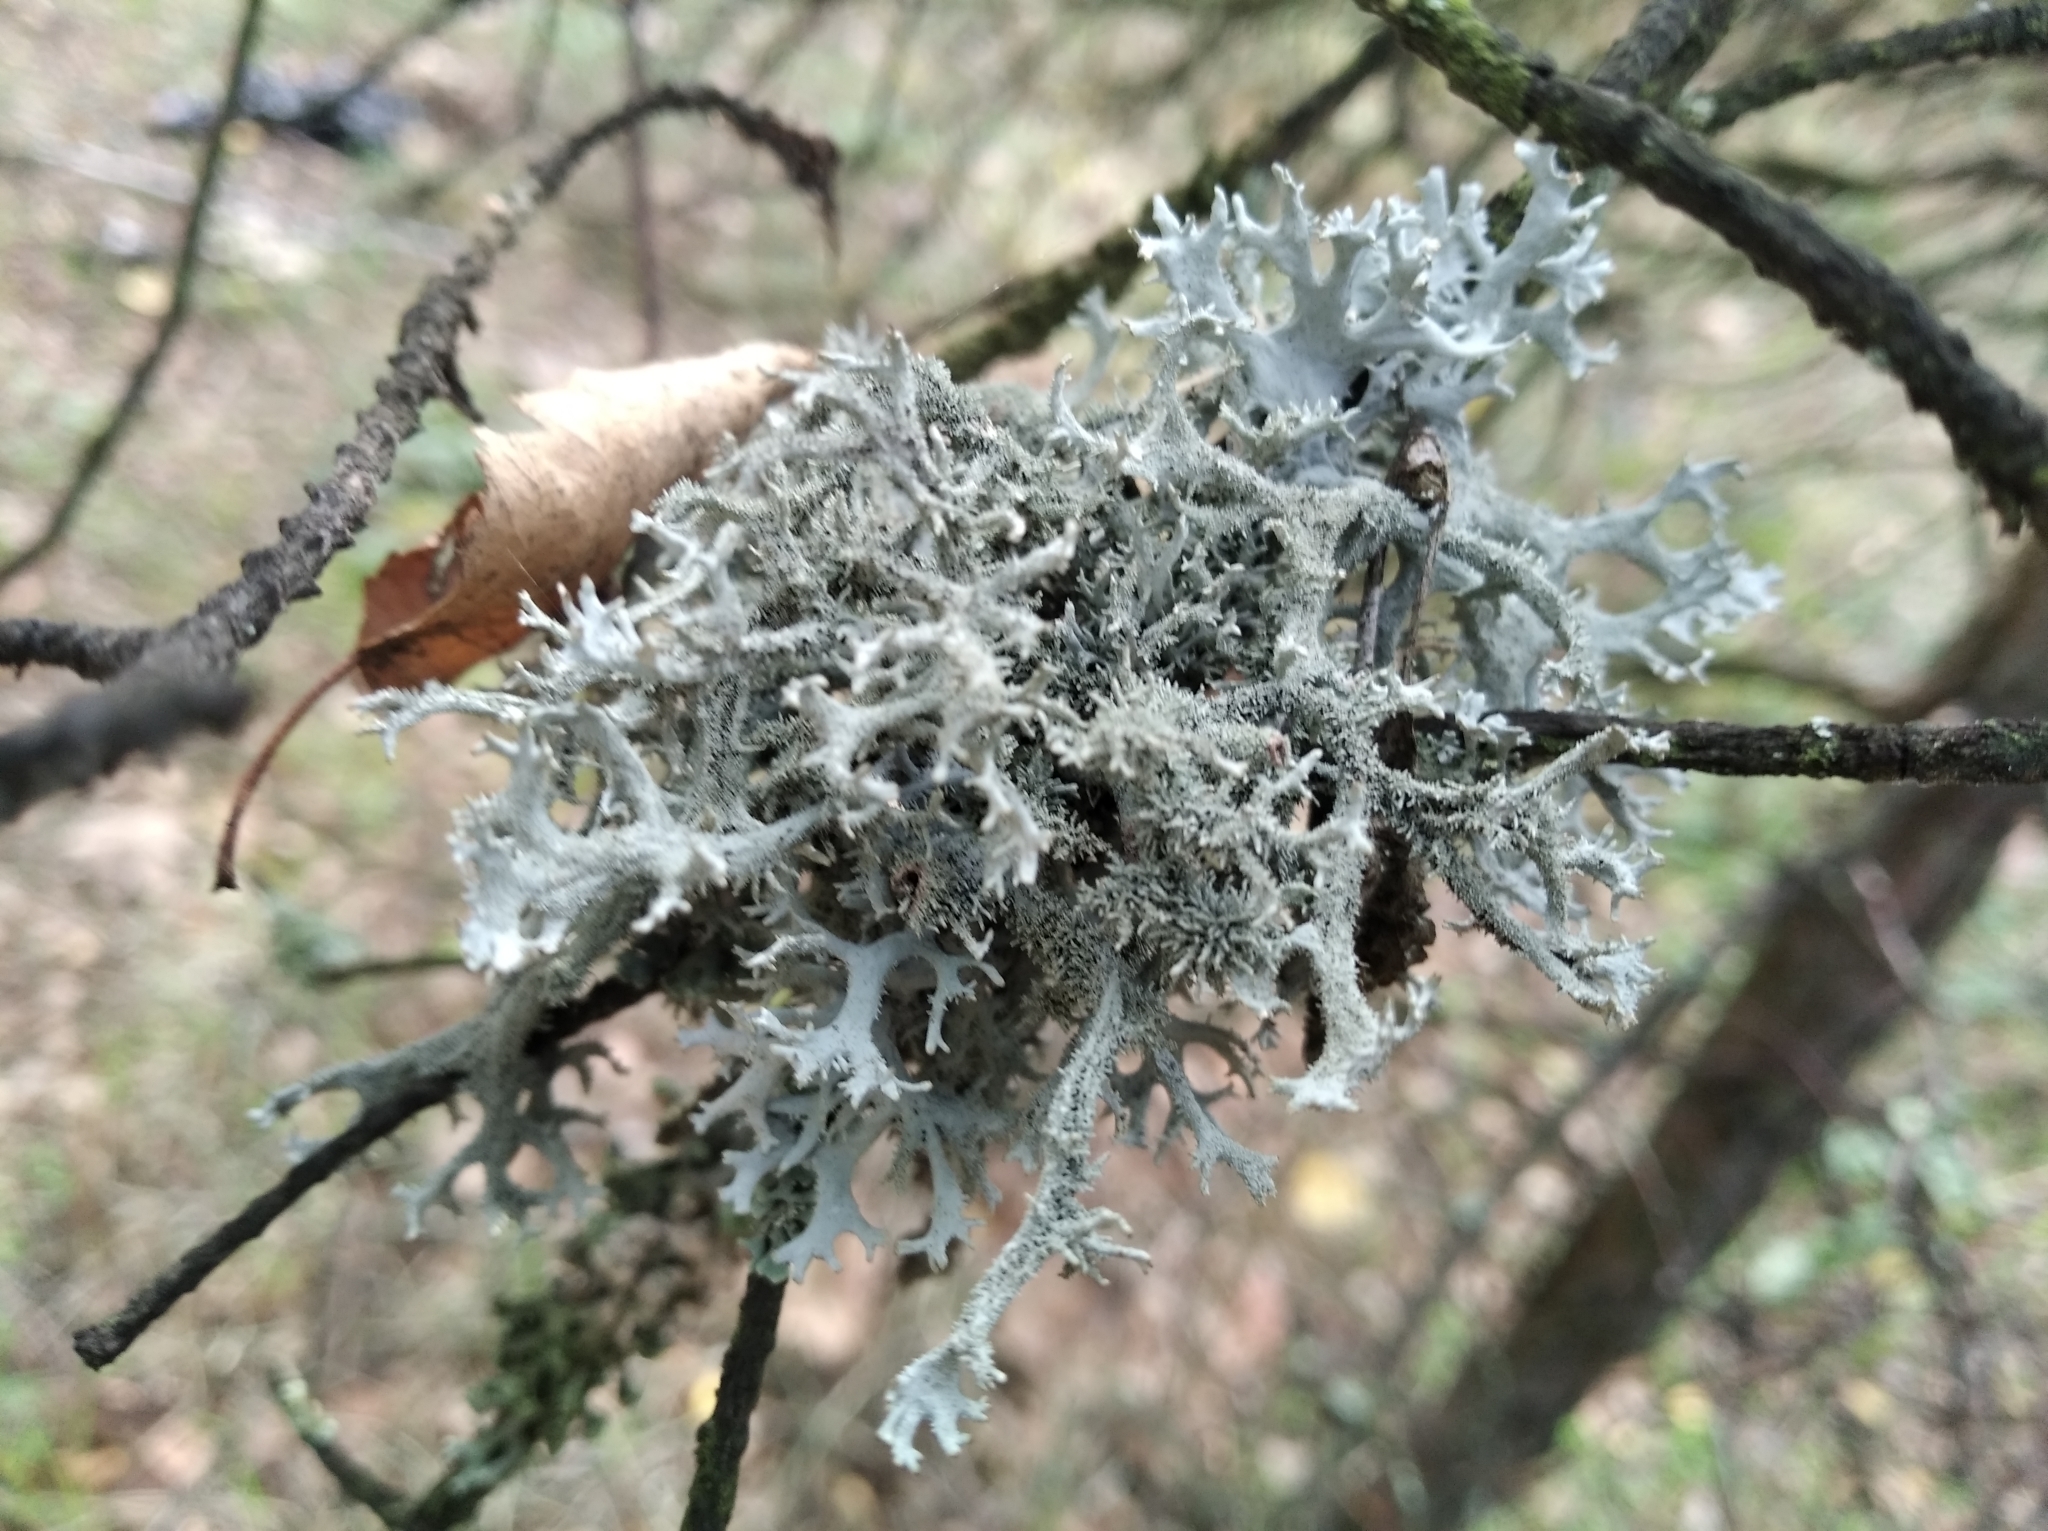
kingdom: Fungi
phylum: Ascomycota
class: Lecanoromycetes
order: Lecanorales
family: Parmeliaceae
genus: Pseudevernia
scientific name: Pseudevernia furfuracea
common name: Tree moss
